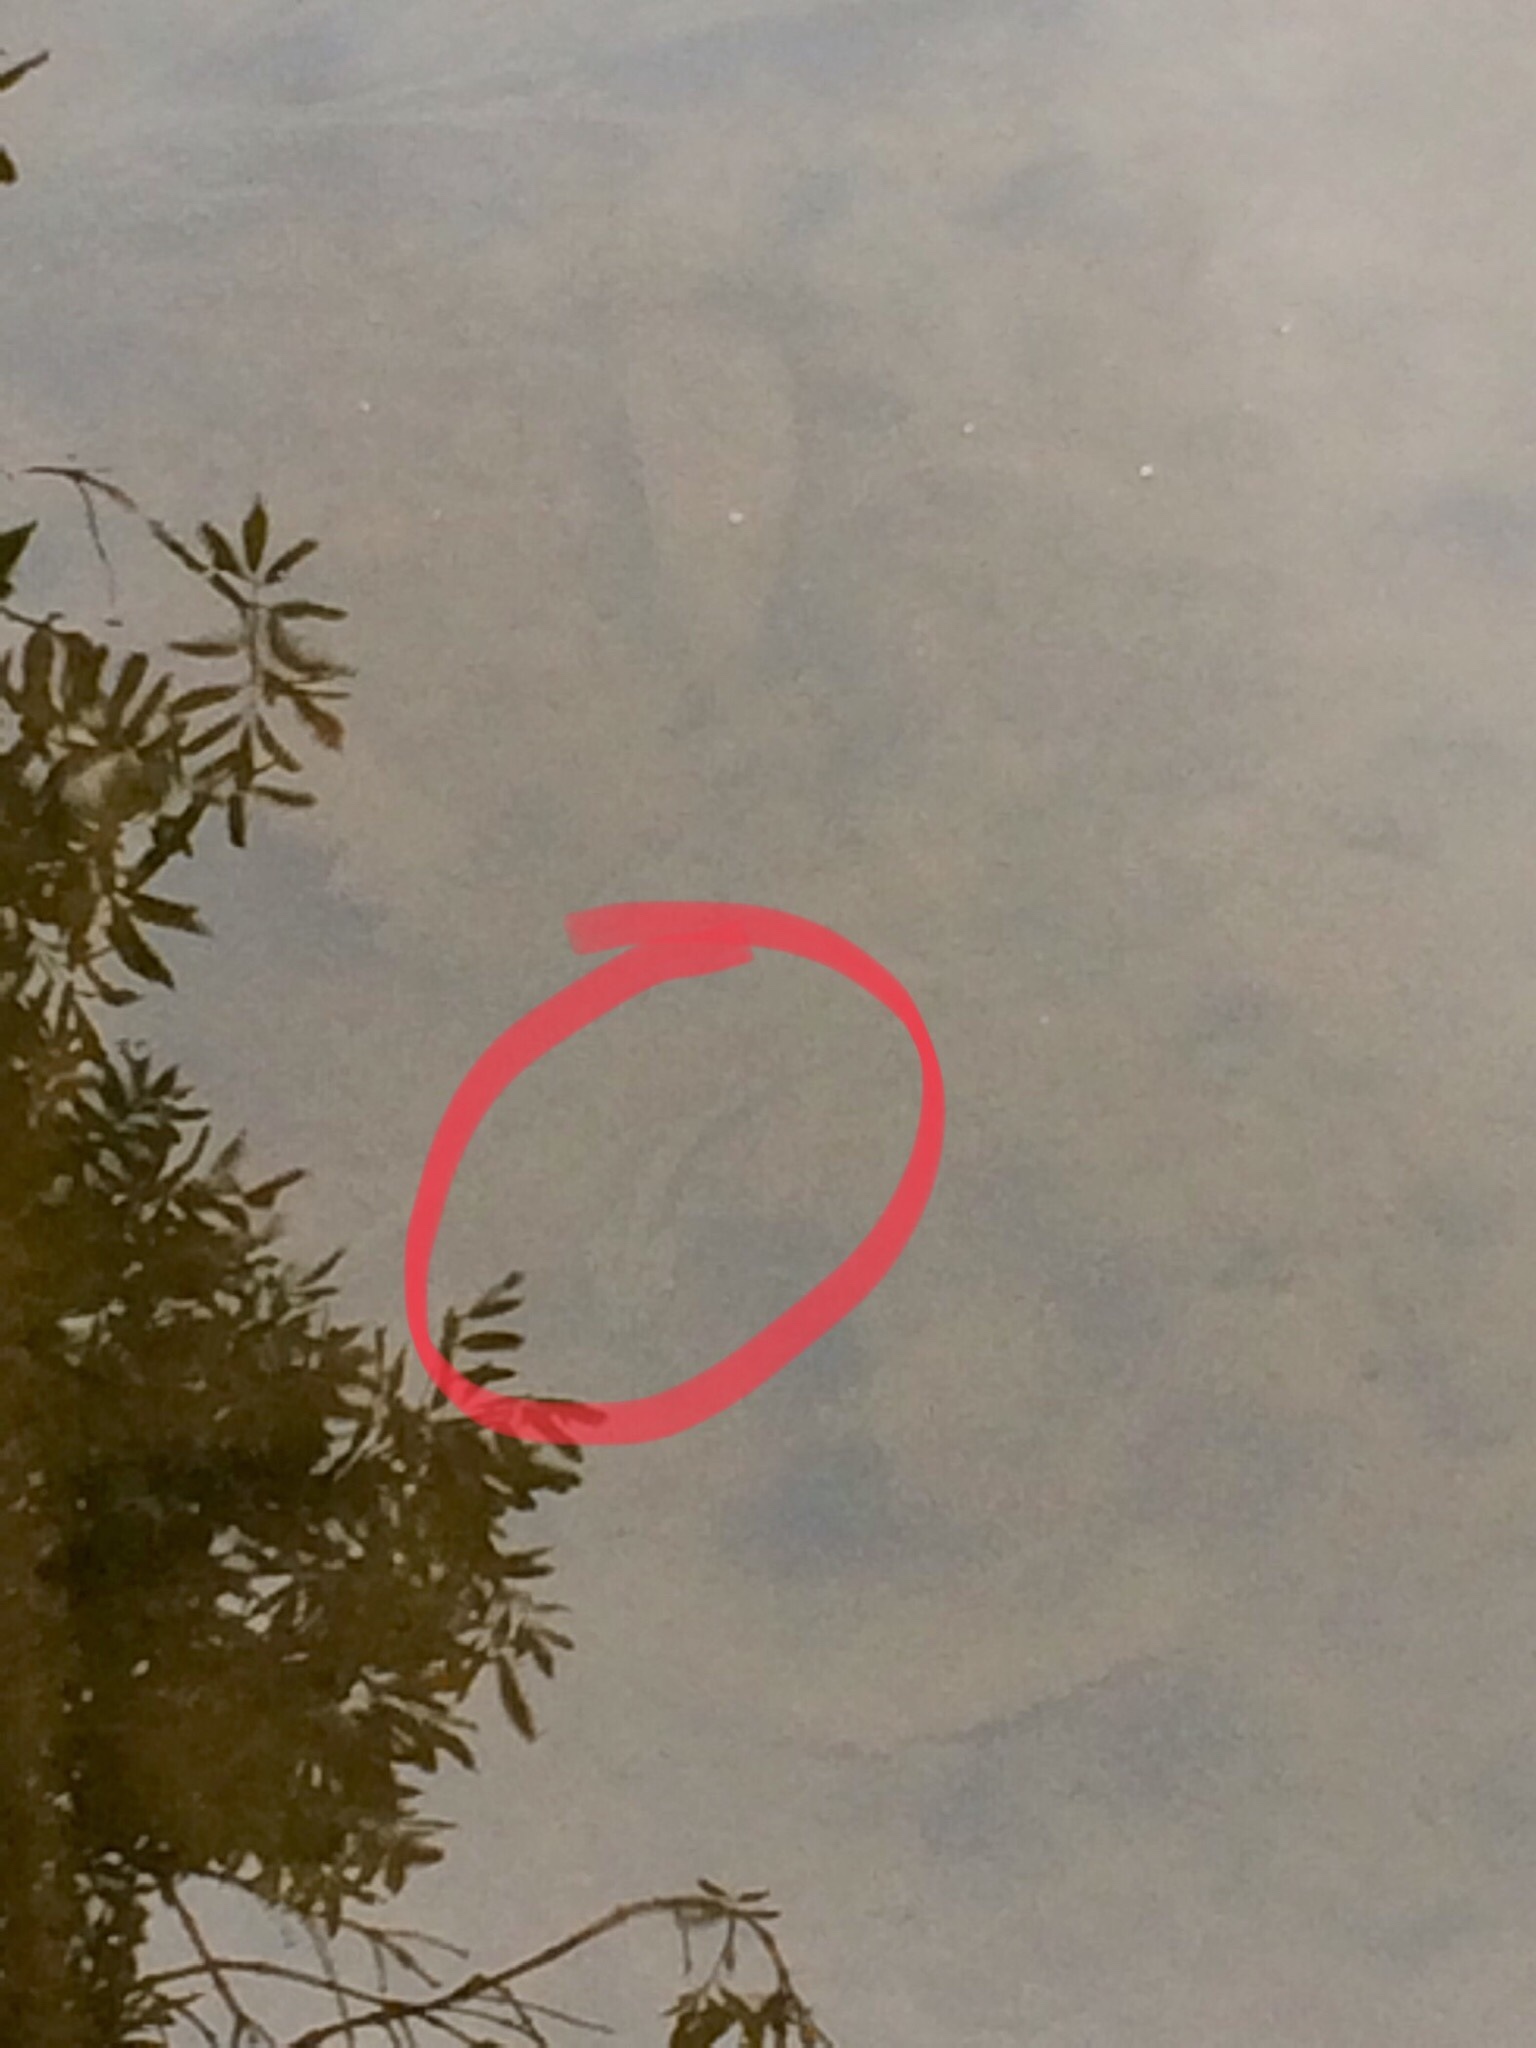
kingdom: Animalia
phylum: Chordata
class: Amphibia
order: Anura
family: Pyxicephalidae
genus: Amietia
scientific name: Amietia fuscigula
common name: Cape rana
